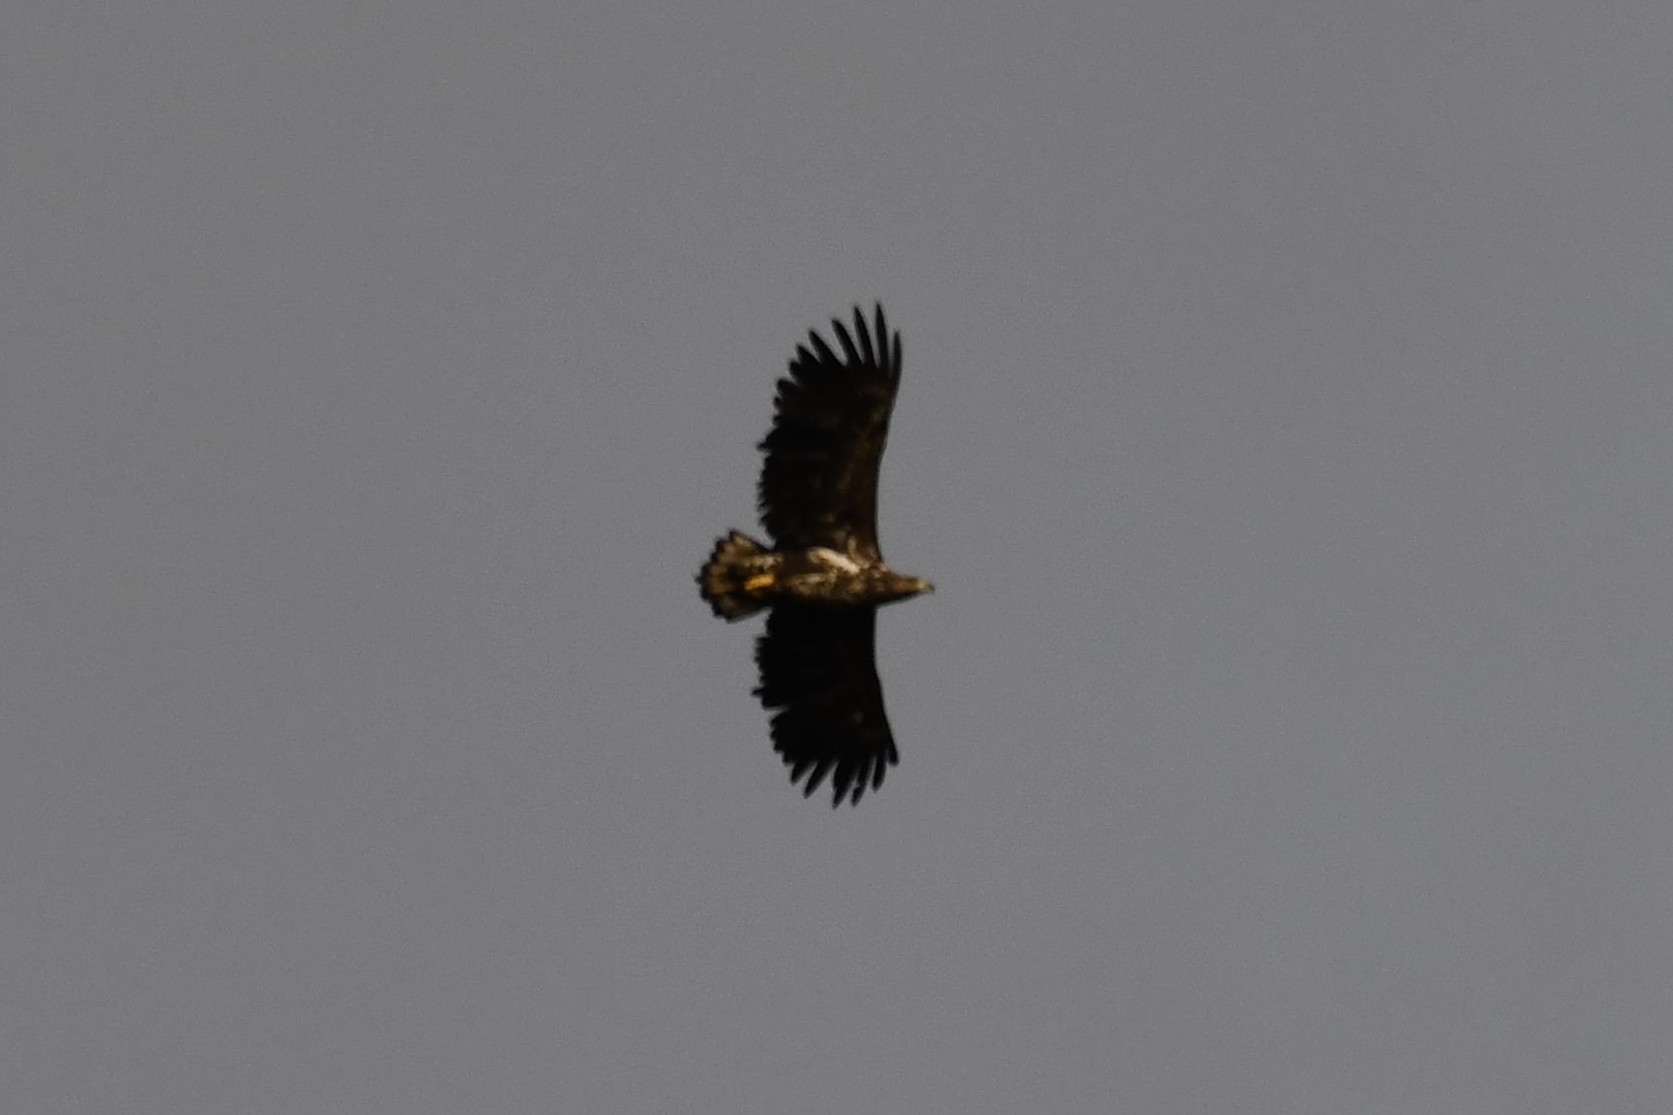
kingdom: Animalia
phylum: Chordata
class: Aves
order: Accipitriformes
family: Accipitridae
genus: Haliaeetus
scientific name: Haliaeetus albicilla
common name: White-tailed eagle
